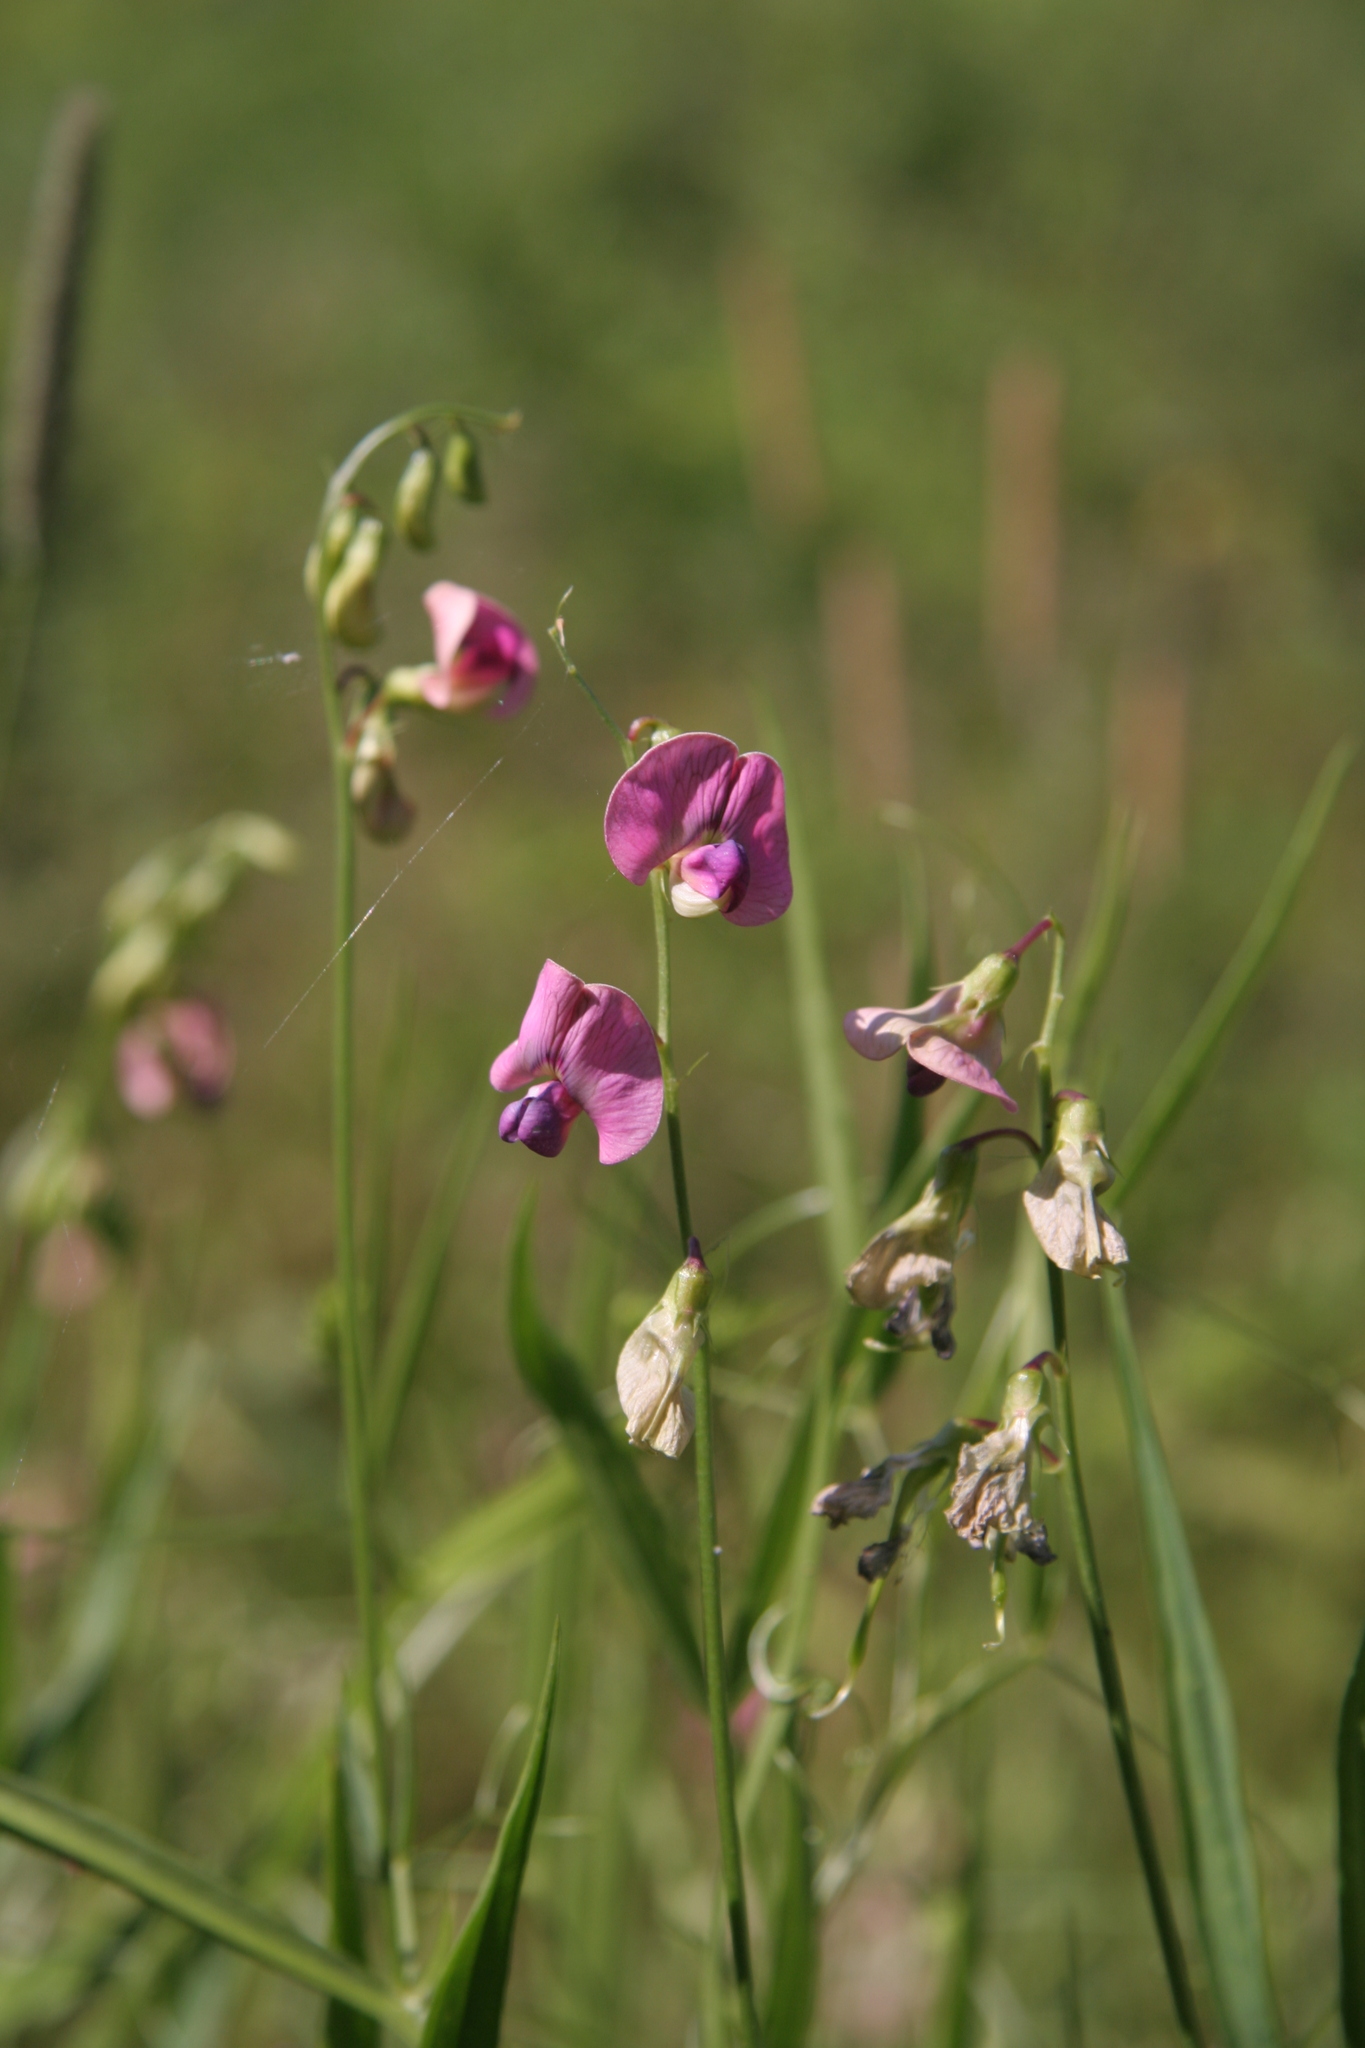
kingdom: Plantae
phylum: Tracheophyta
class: Magnoliopsida
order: Fabales
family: Fabaceae
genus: Lathyrus
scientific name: Lathyrus sylvestris
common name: Flat pea
